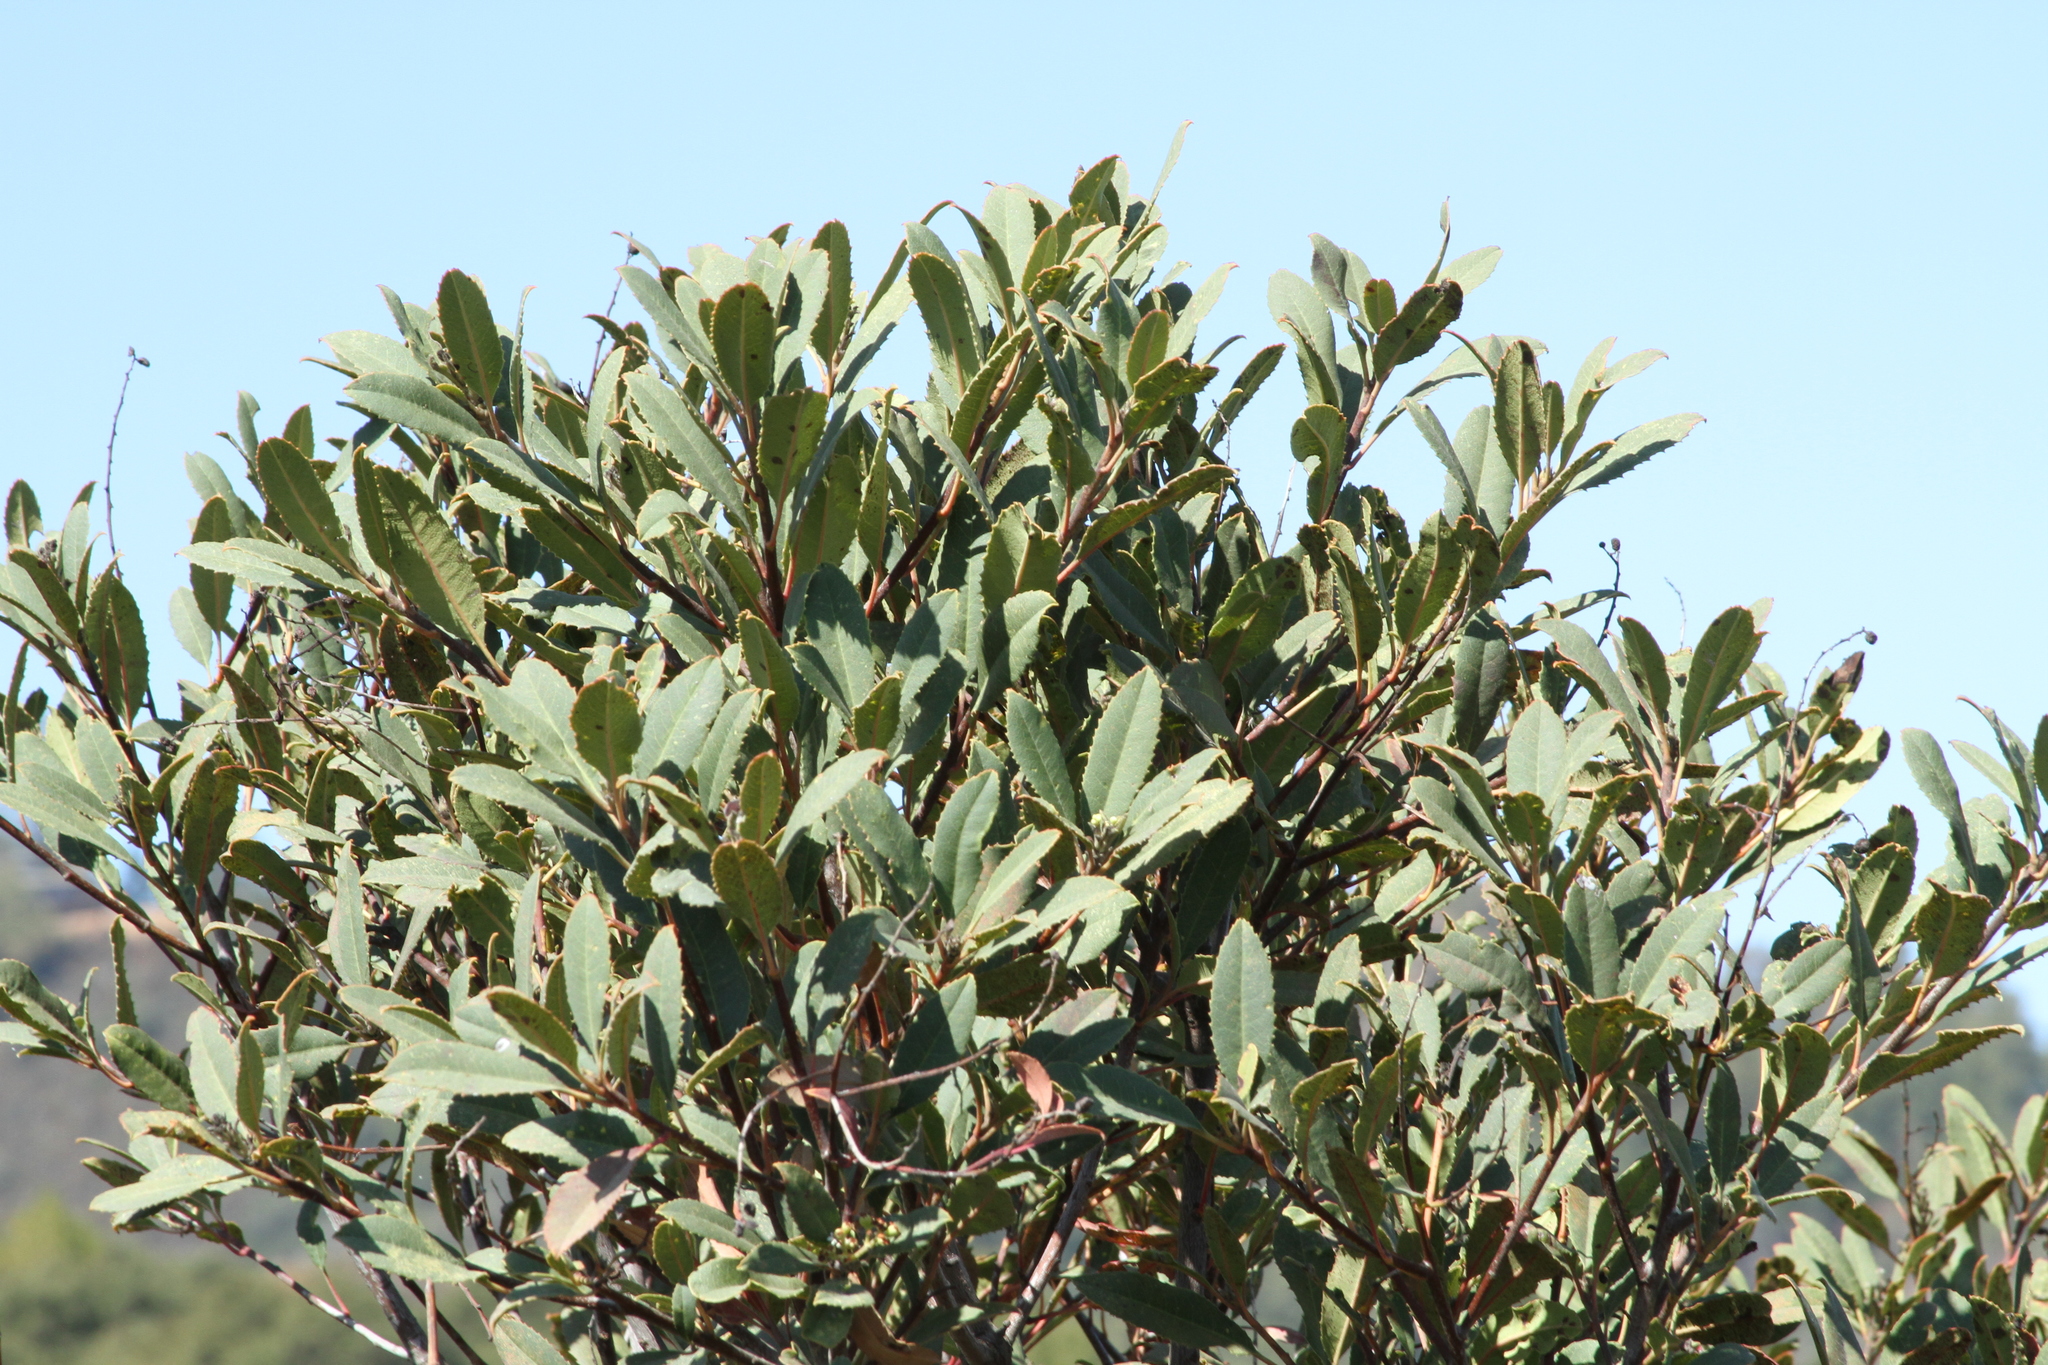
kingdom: Plantae
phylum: Tracheophyta
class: Magnoliopsida
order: Rosales
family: Rosaceae
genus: Heteromeles
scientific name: Heteromeles arbutifolia
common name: California-holly
